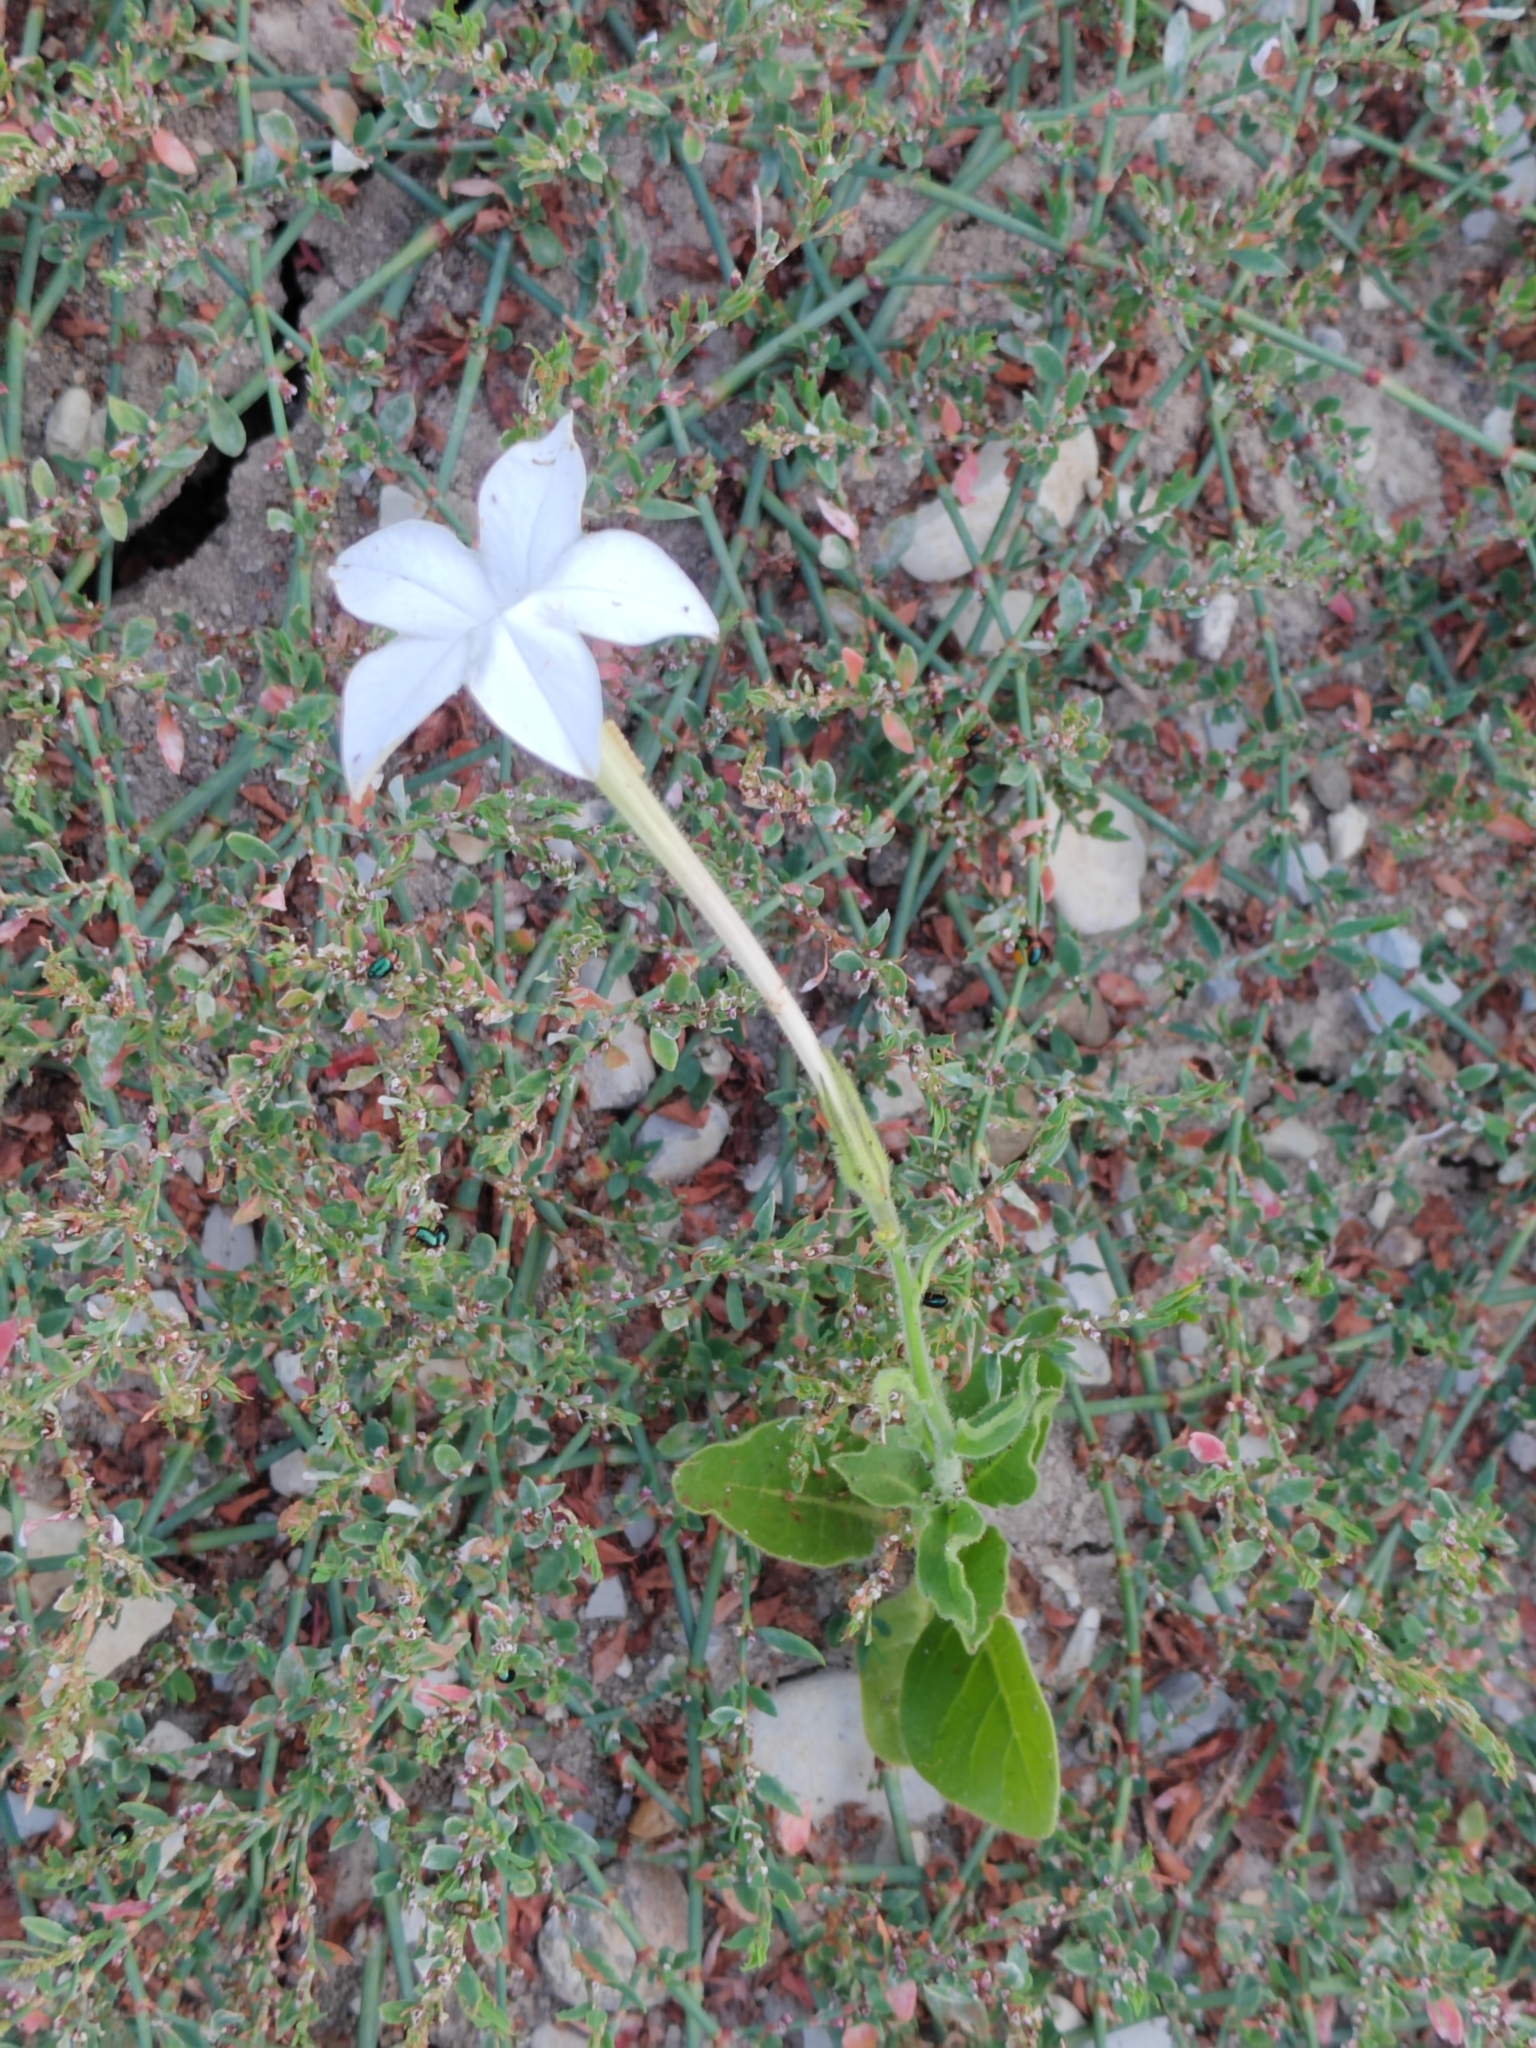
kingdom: Plantae
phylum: Tracheophyta
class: Magnoliopsida
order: Solanales
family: Solanaceae
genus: Nicotiana
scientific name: Nicotiana alata
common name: Jasmine tobacco
